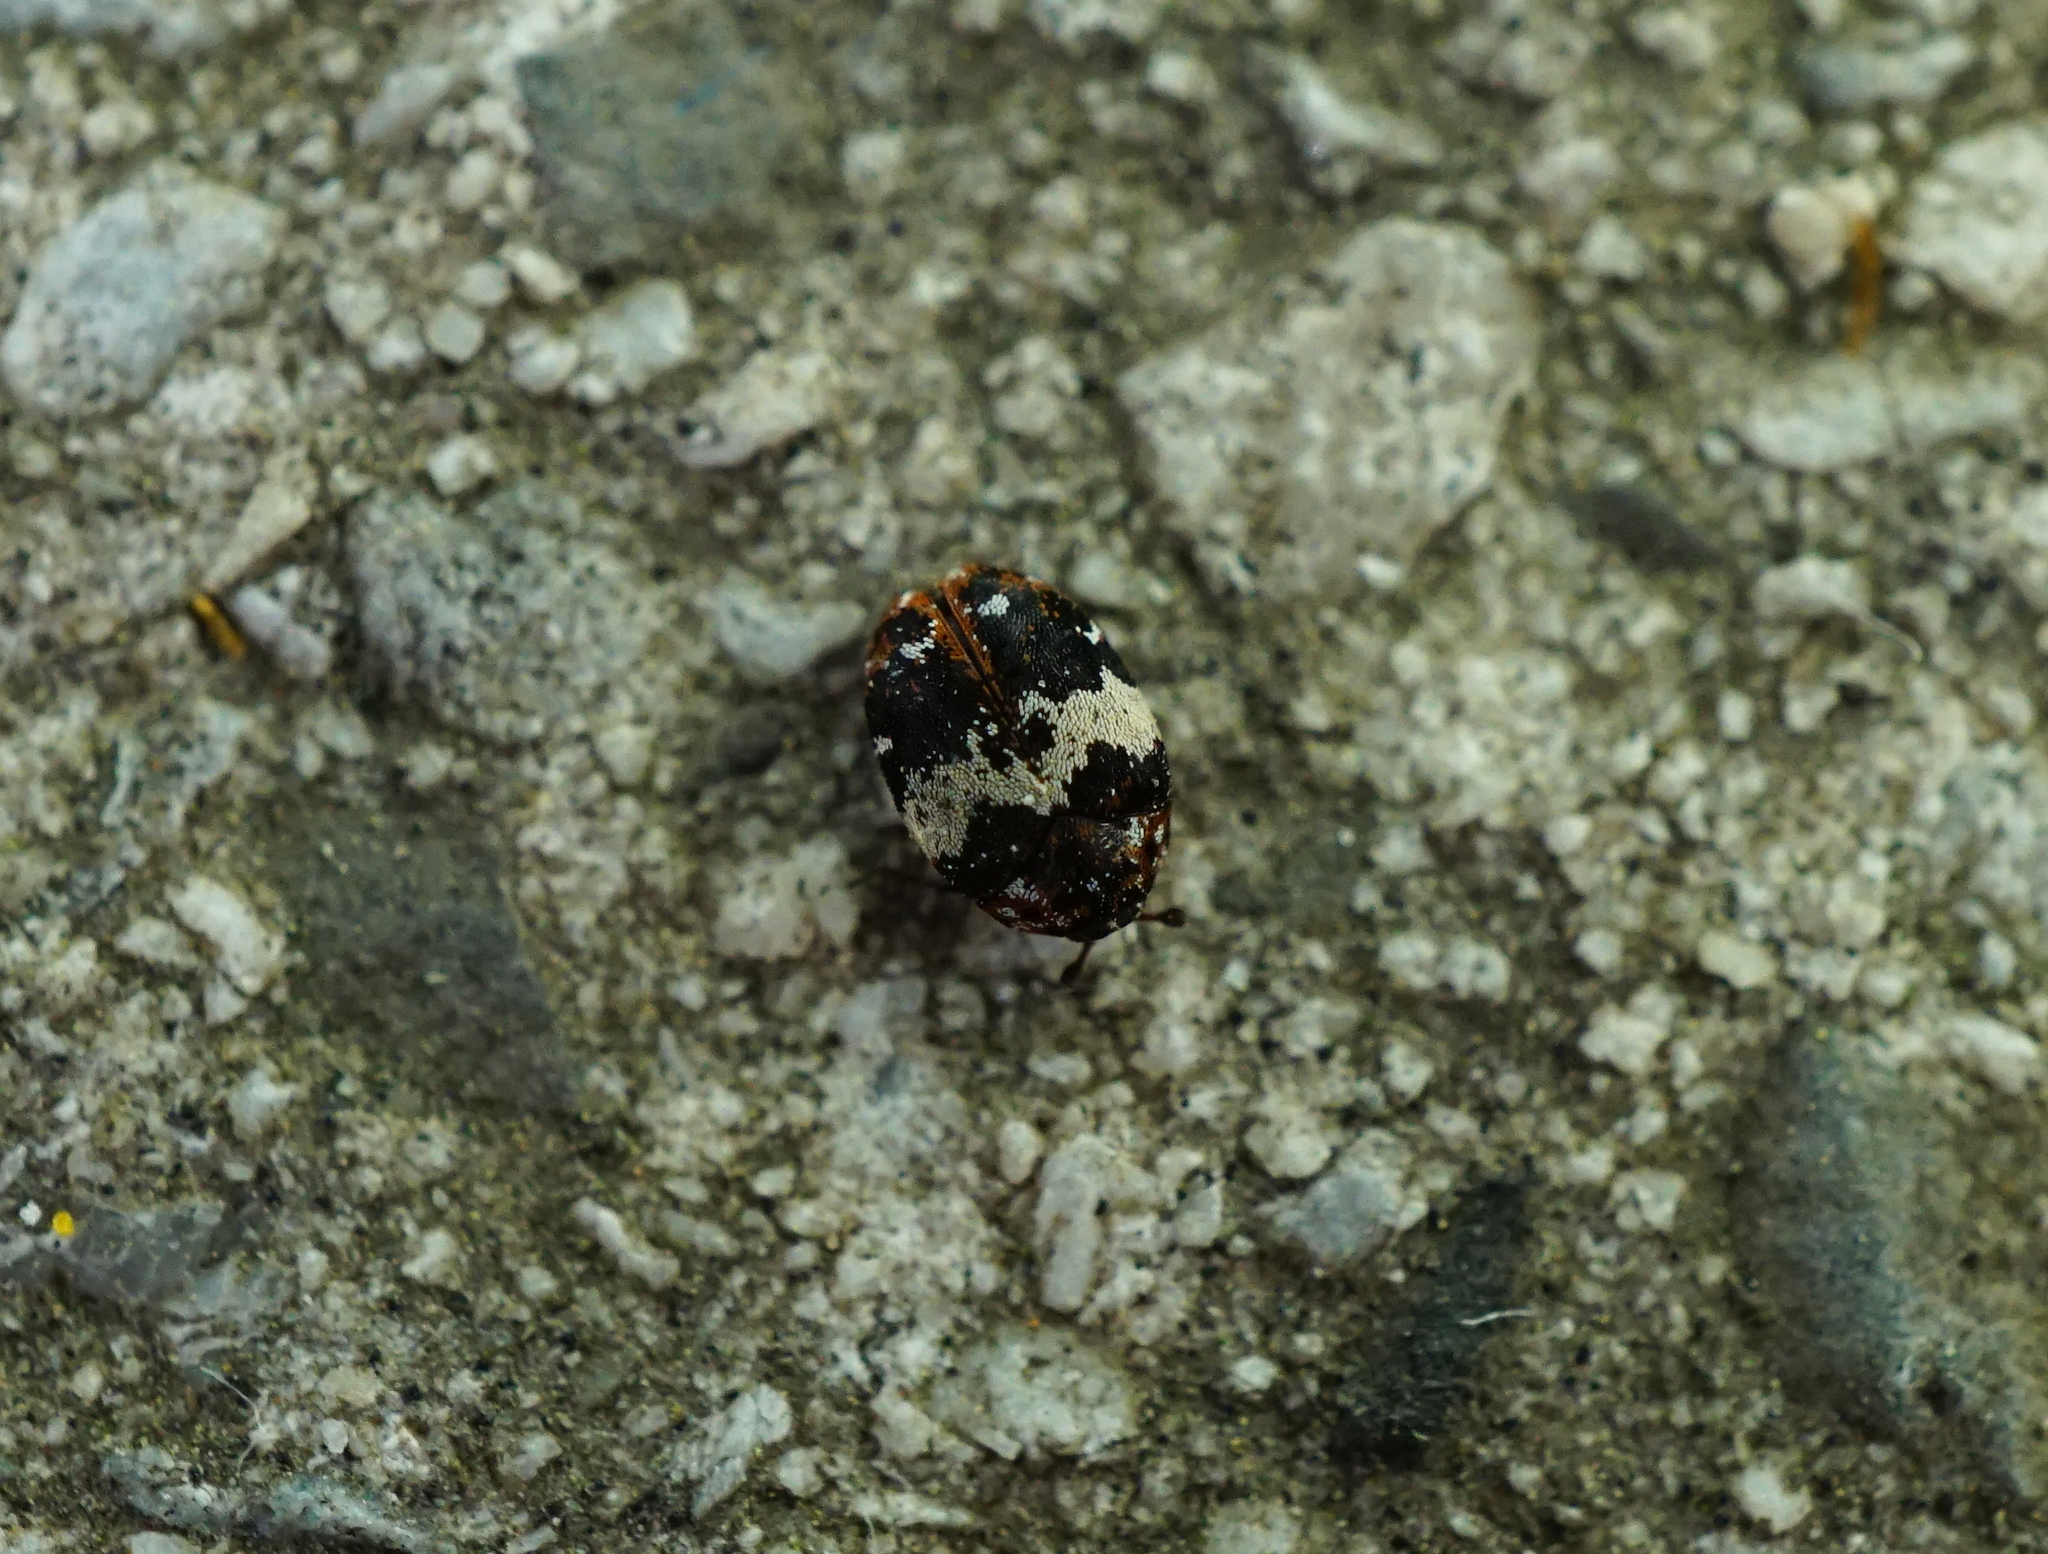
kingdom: Animalia
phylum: Arthropoda
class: Insecta
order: Coleoptera
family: Dermestidae
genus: Anthrenus
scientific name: Anthrenus pimpinellae
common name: Dermestid beetle
